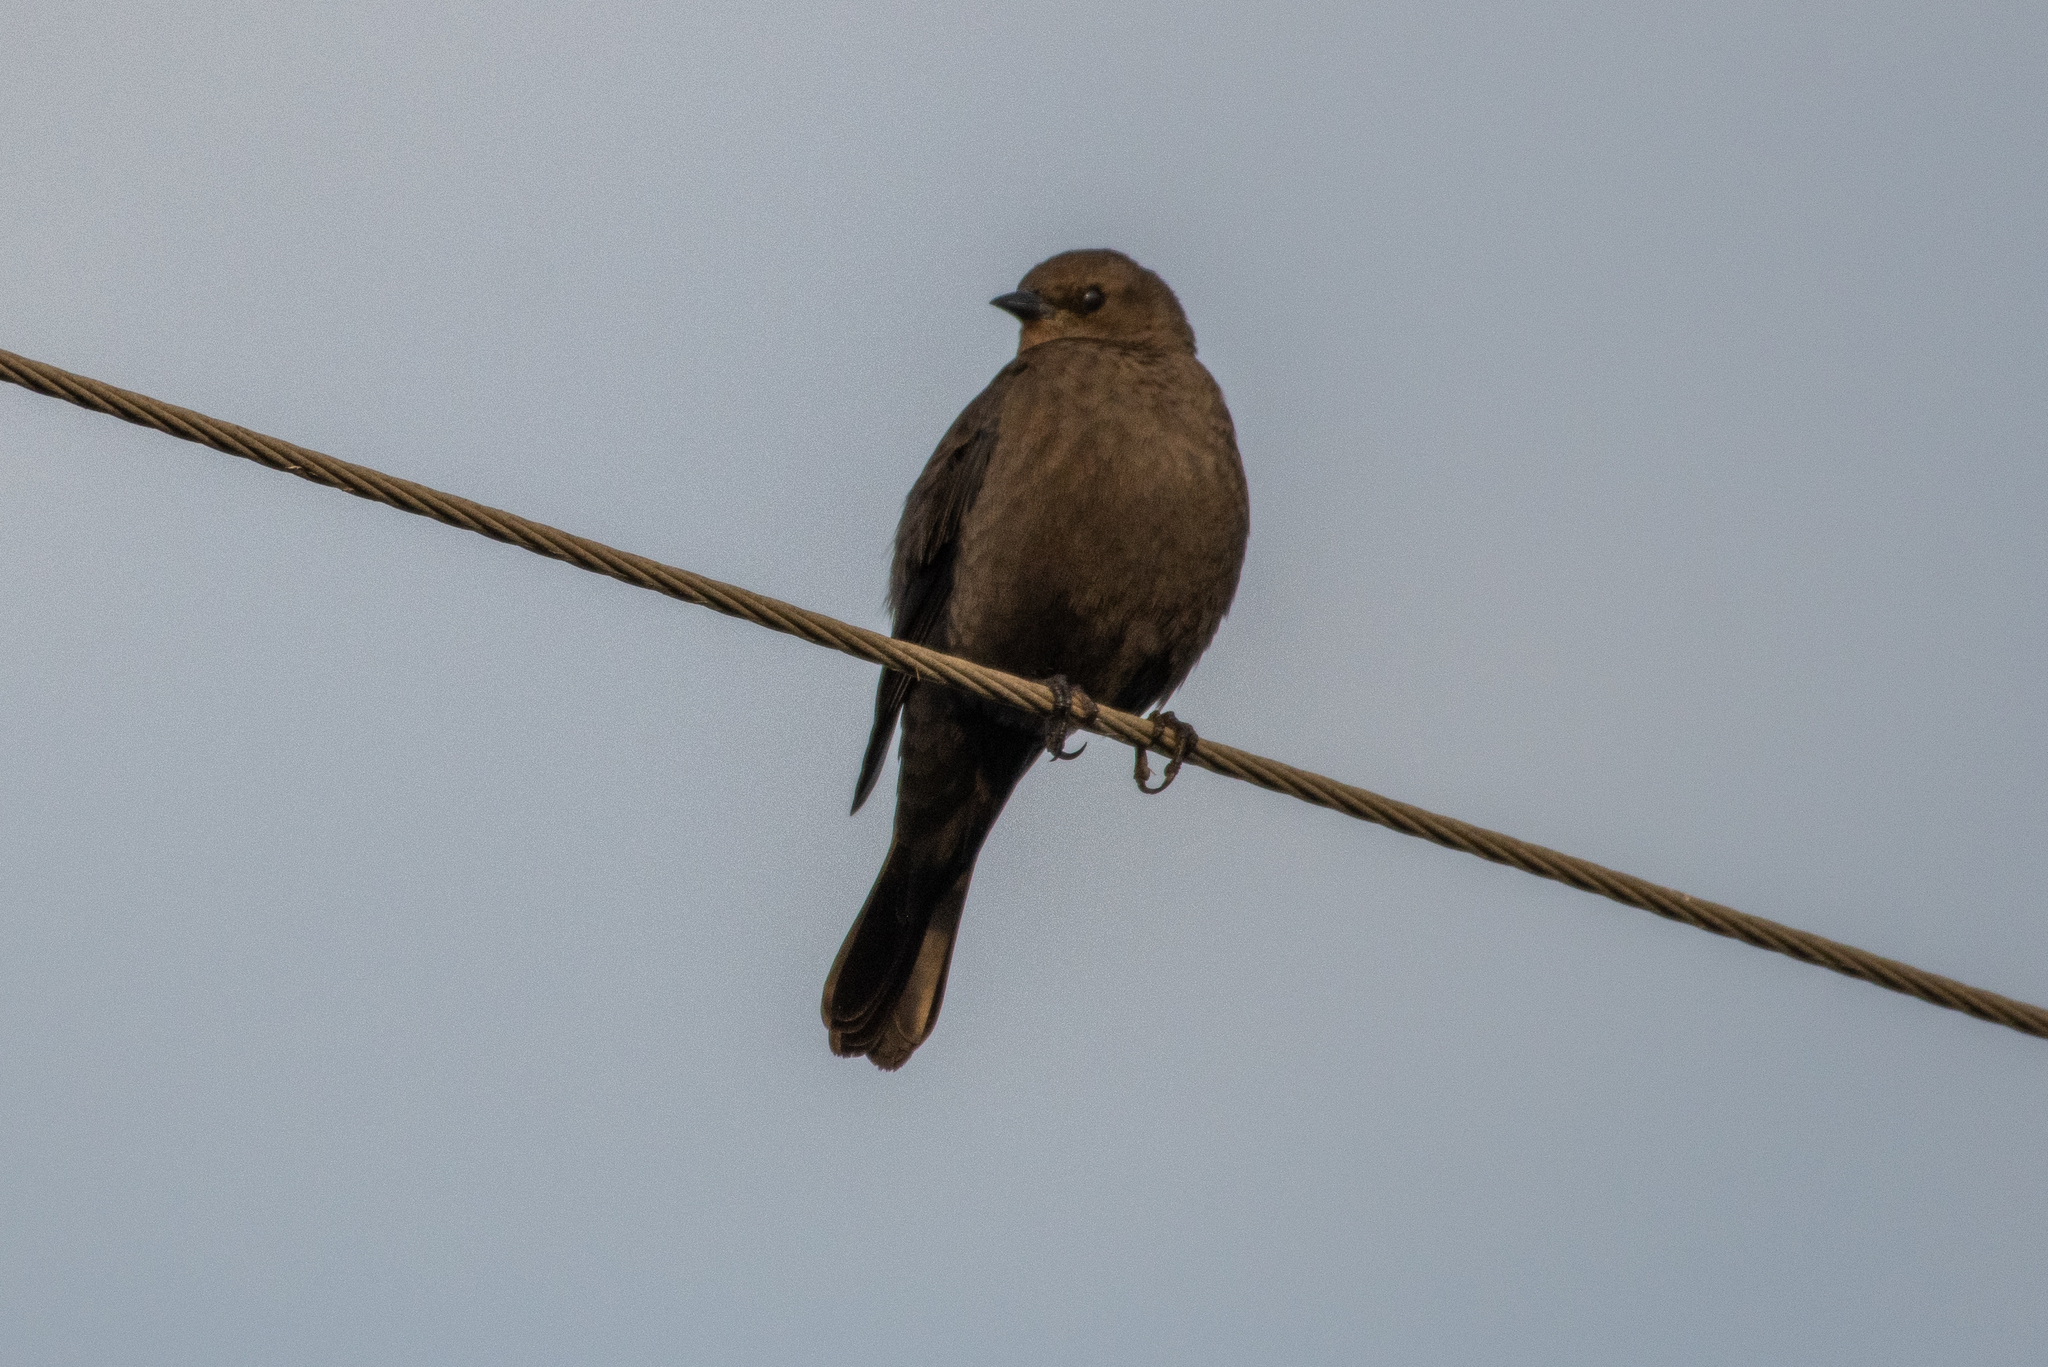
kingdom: Animalia
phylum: Chordata
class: Aves
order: Passeriformes
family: Icteridae
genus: Euphagus
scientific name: Euphagus cyanocephalus
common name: Brewer's blackbird
